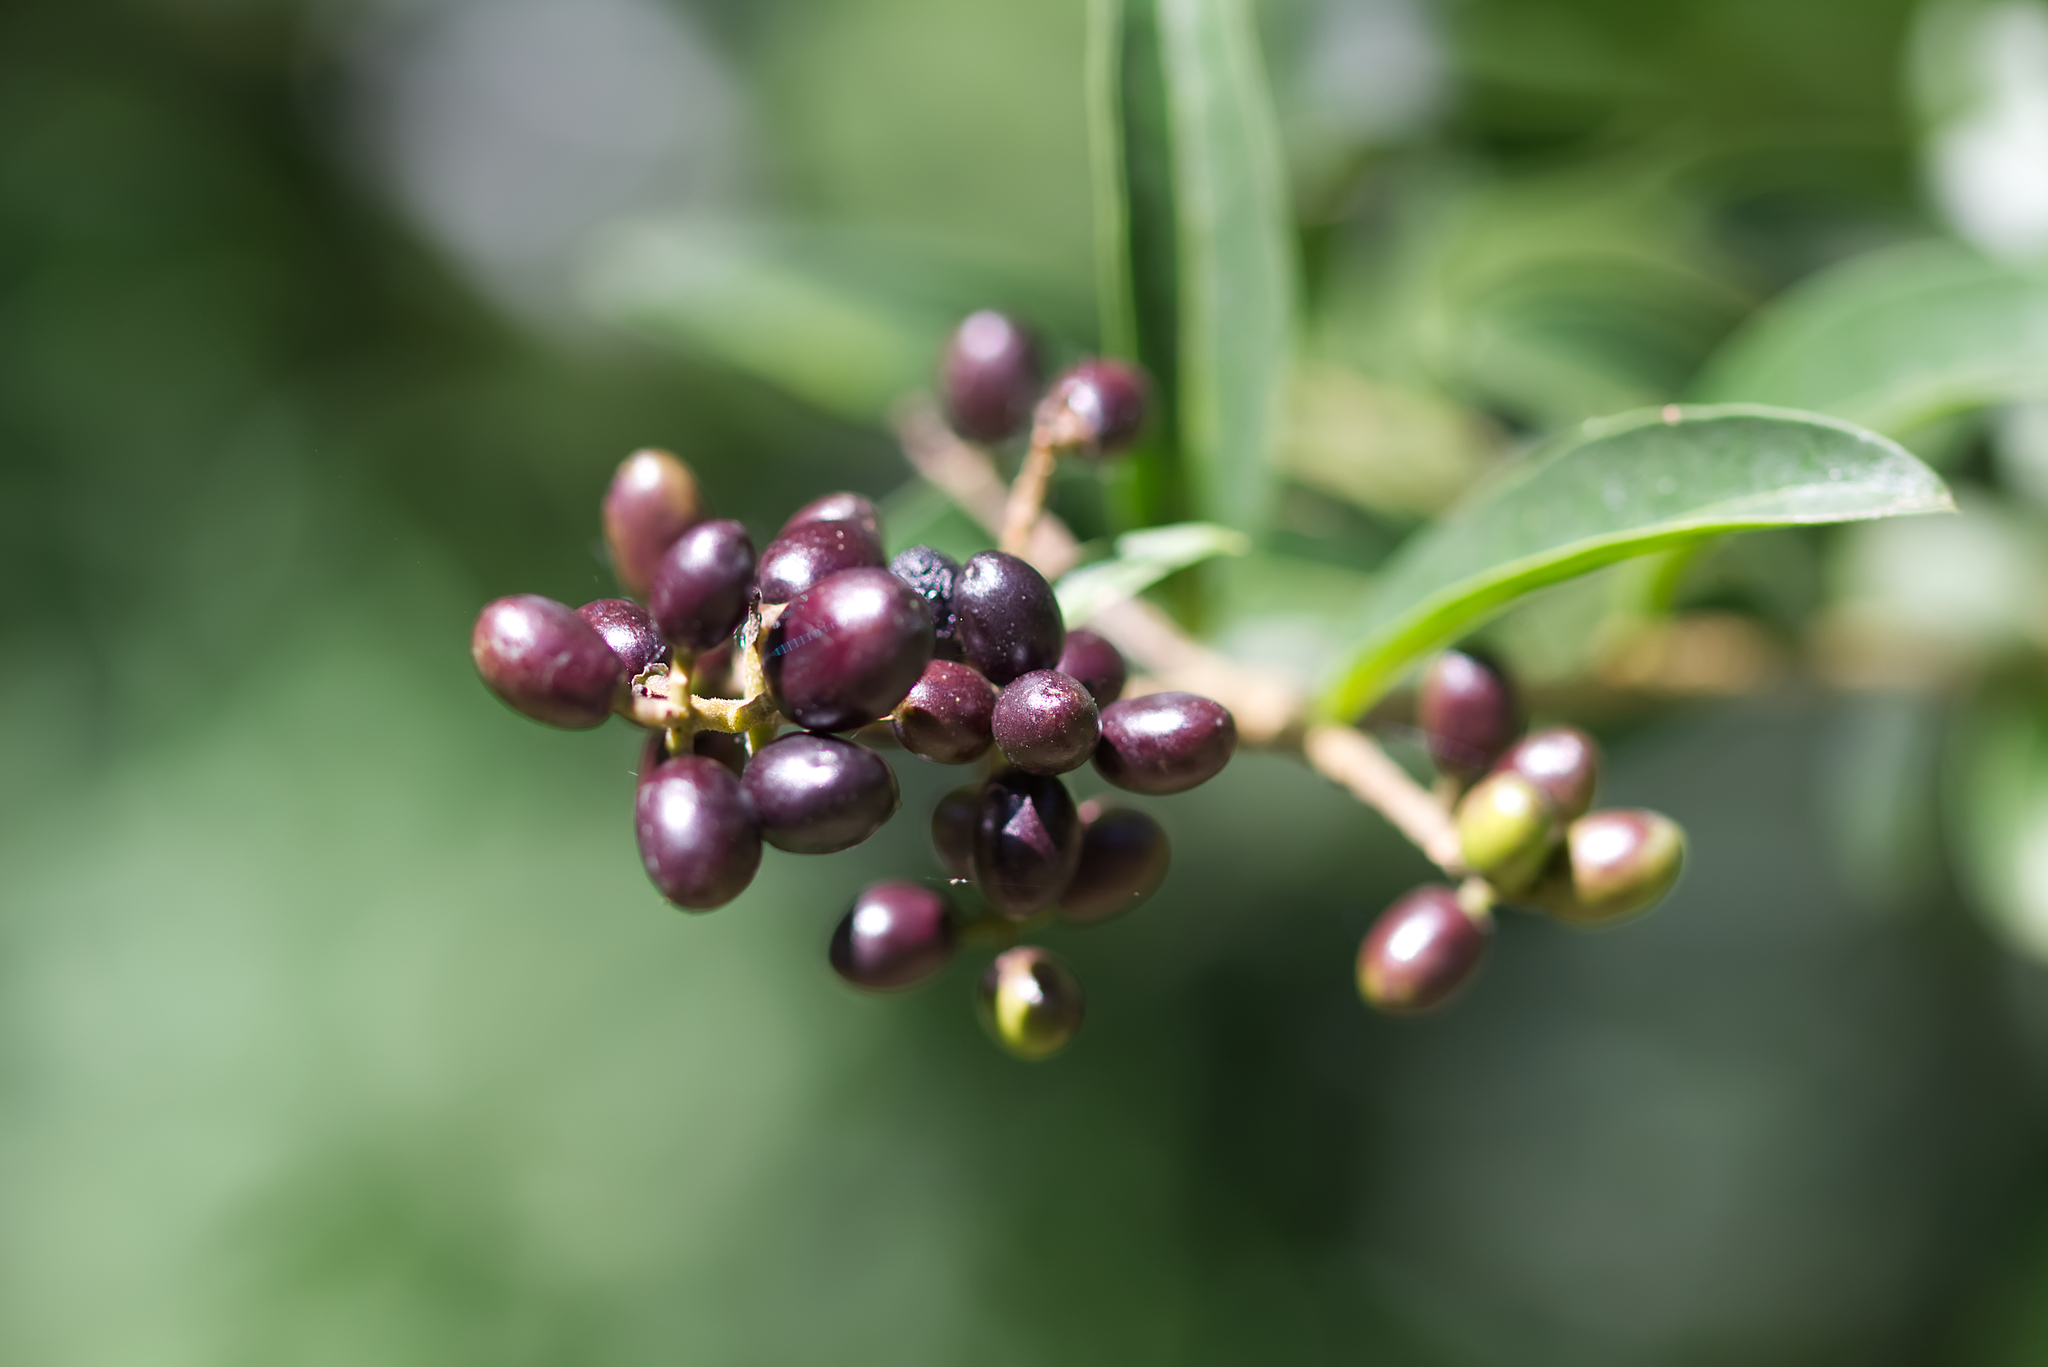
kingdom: Plantae
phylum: Tracheophyta
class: Magnoliopsida
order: Lamiales
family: Oleaceae
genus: Ligustrum
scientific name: Ligustrum vulgare
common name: Wild privet
